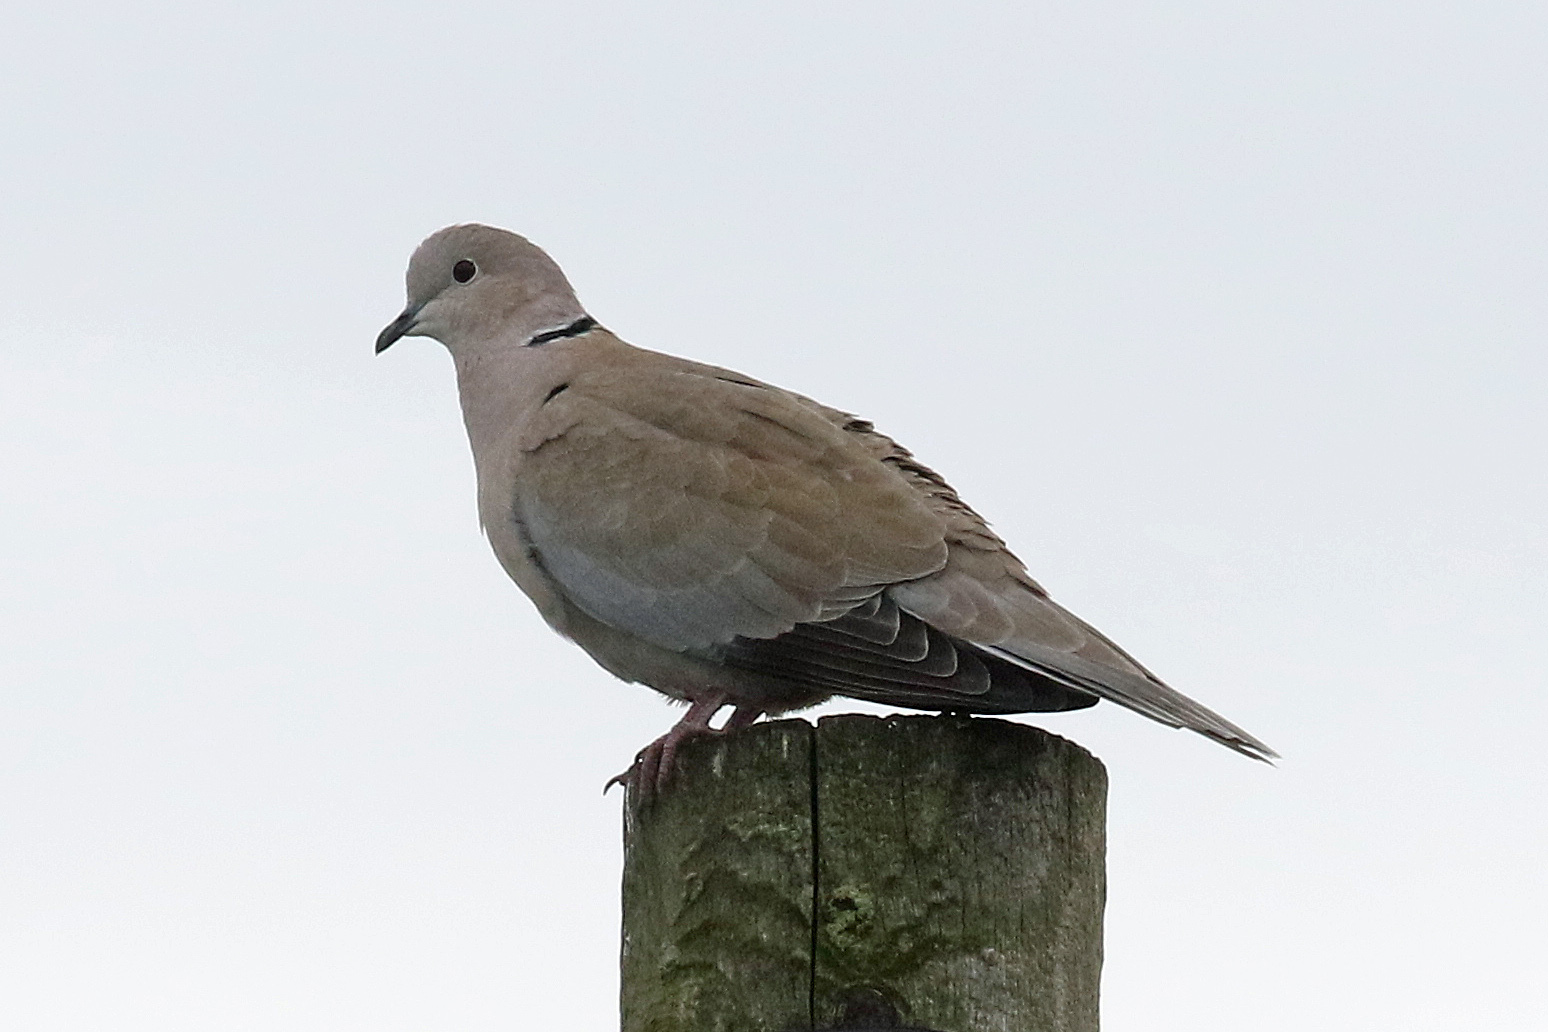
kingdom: Animalia
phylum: Chordata
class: Aves
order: Columbiformes
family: Columbidae
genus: Streptopelia
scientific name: Streptopelia decaocto
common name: Eurasian collared dove
